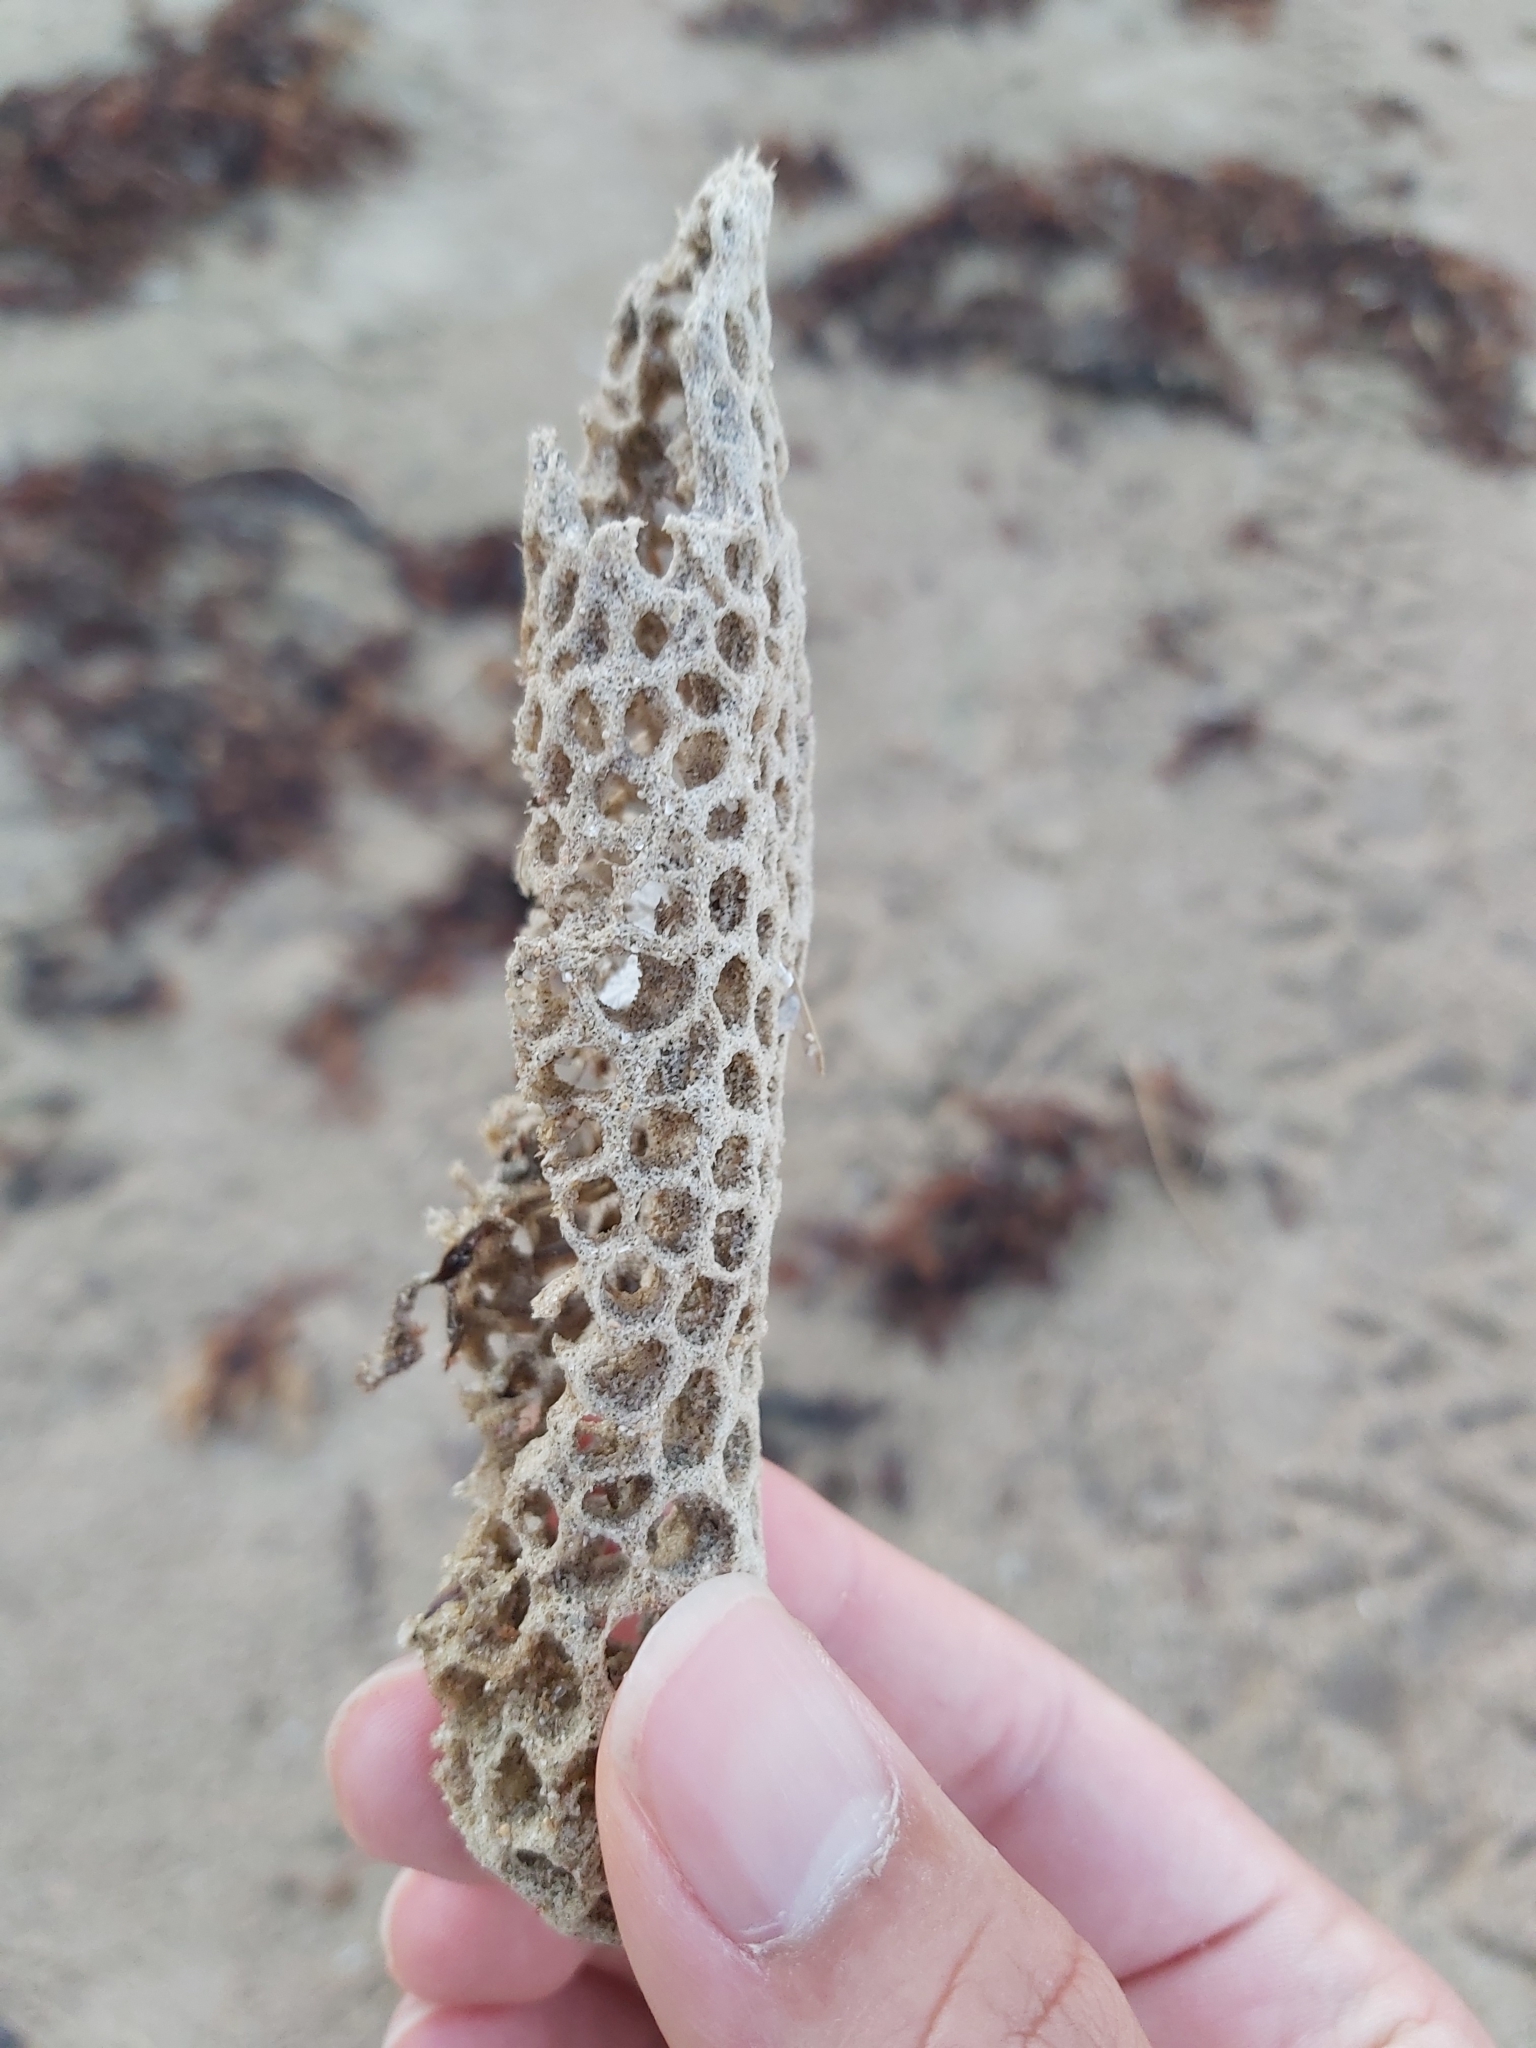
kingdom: Animalia
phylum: Porifera
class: Demospongiae
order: Poecilosclerida
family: Microcionidae
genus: Holopsamma
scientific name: Holopsamma laminaefavosa
